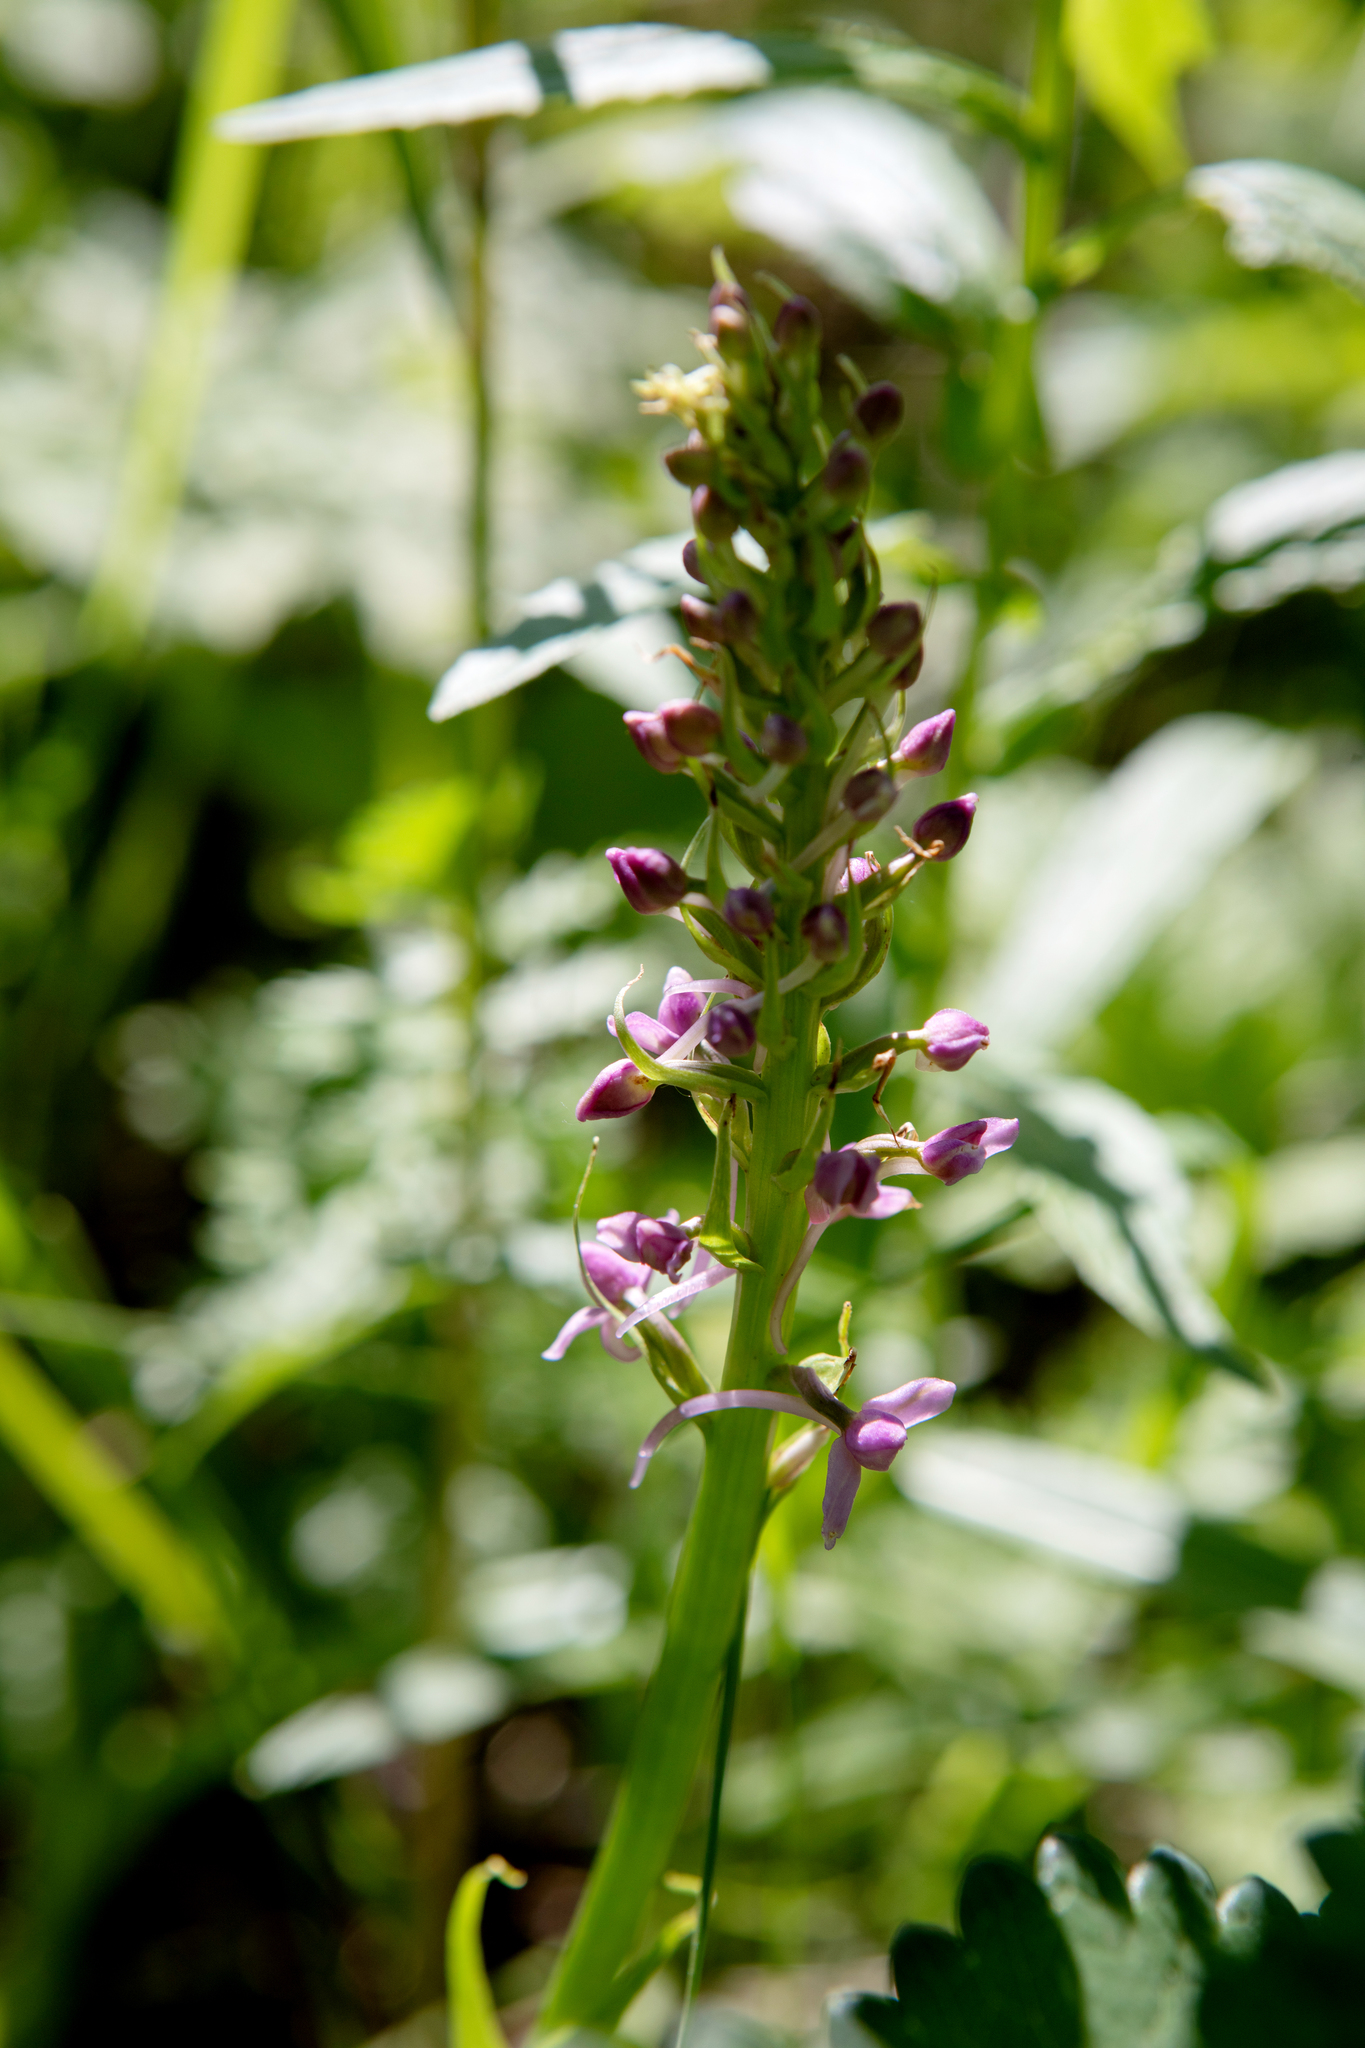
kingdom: Plantae
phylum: Tracheophyta
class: Liliopsida
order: Asparagales
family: Orchidaceae
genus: Gymnadenia
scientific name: Gymnadenia conopsea
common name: Fragrant orchid
